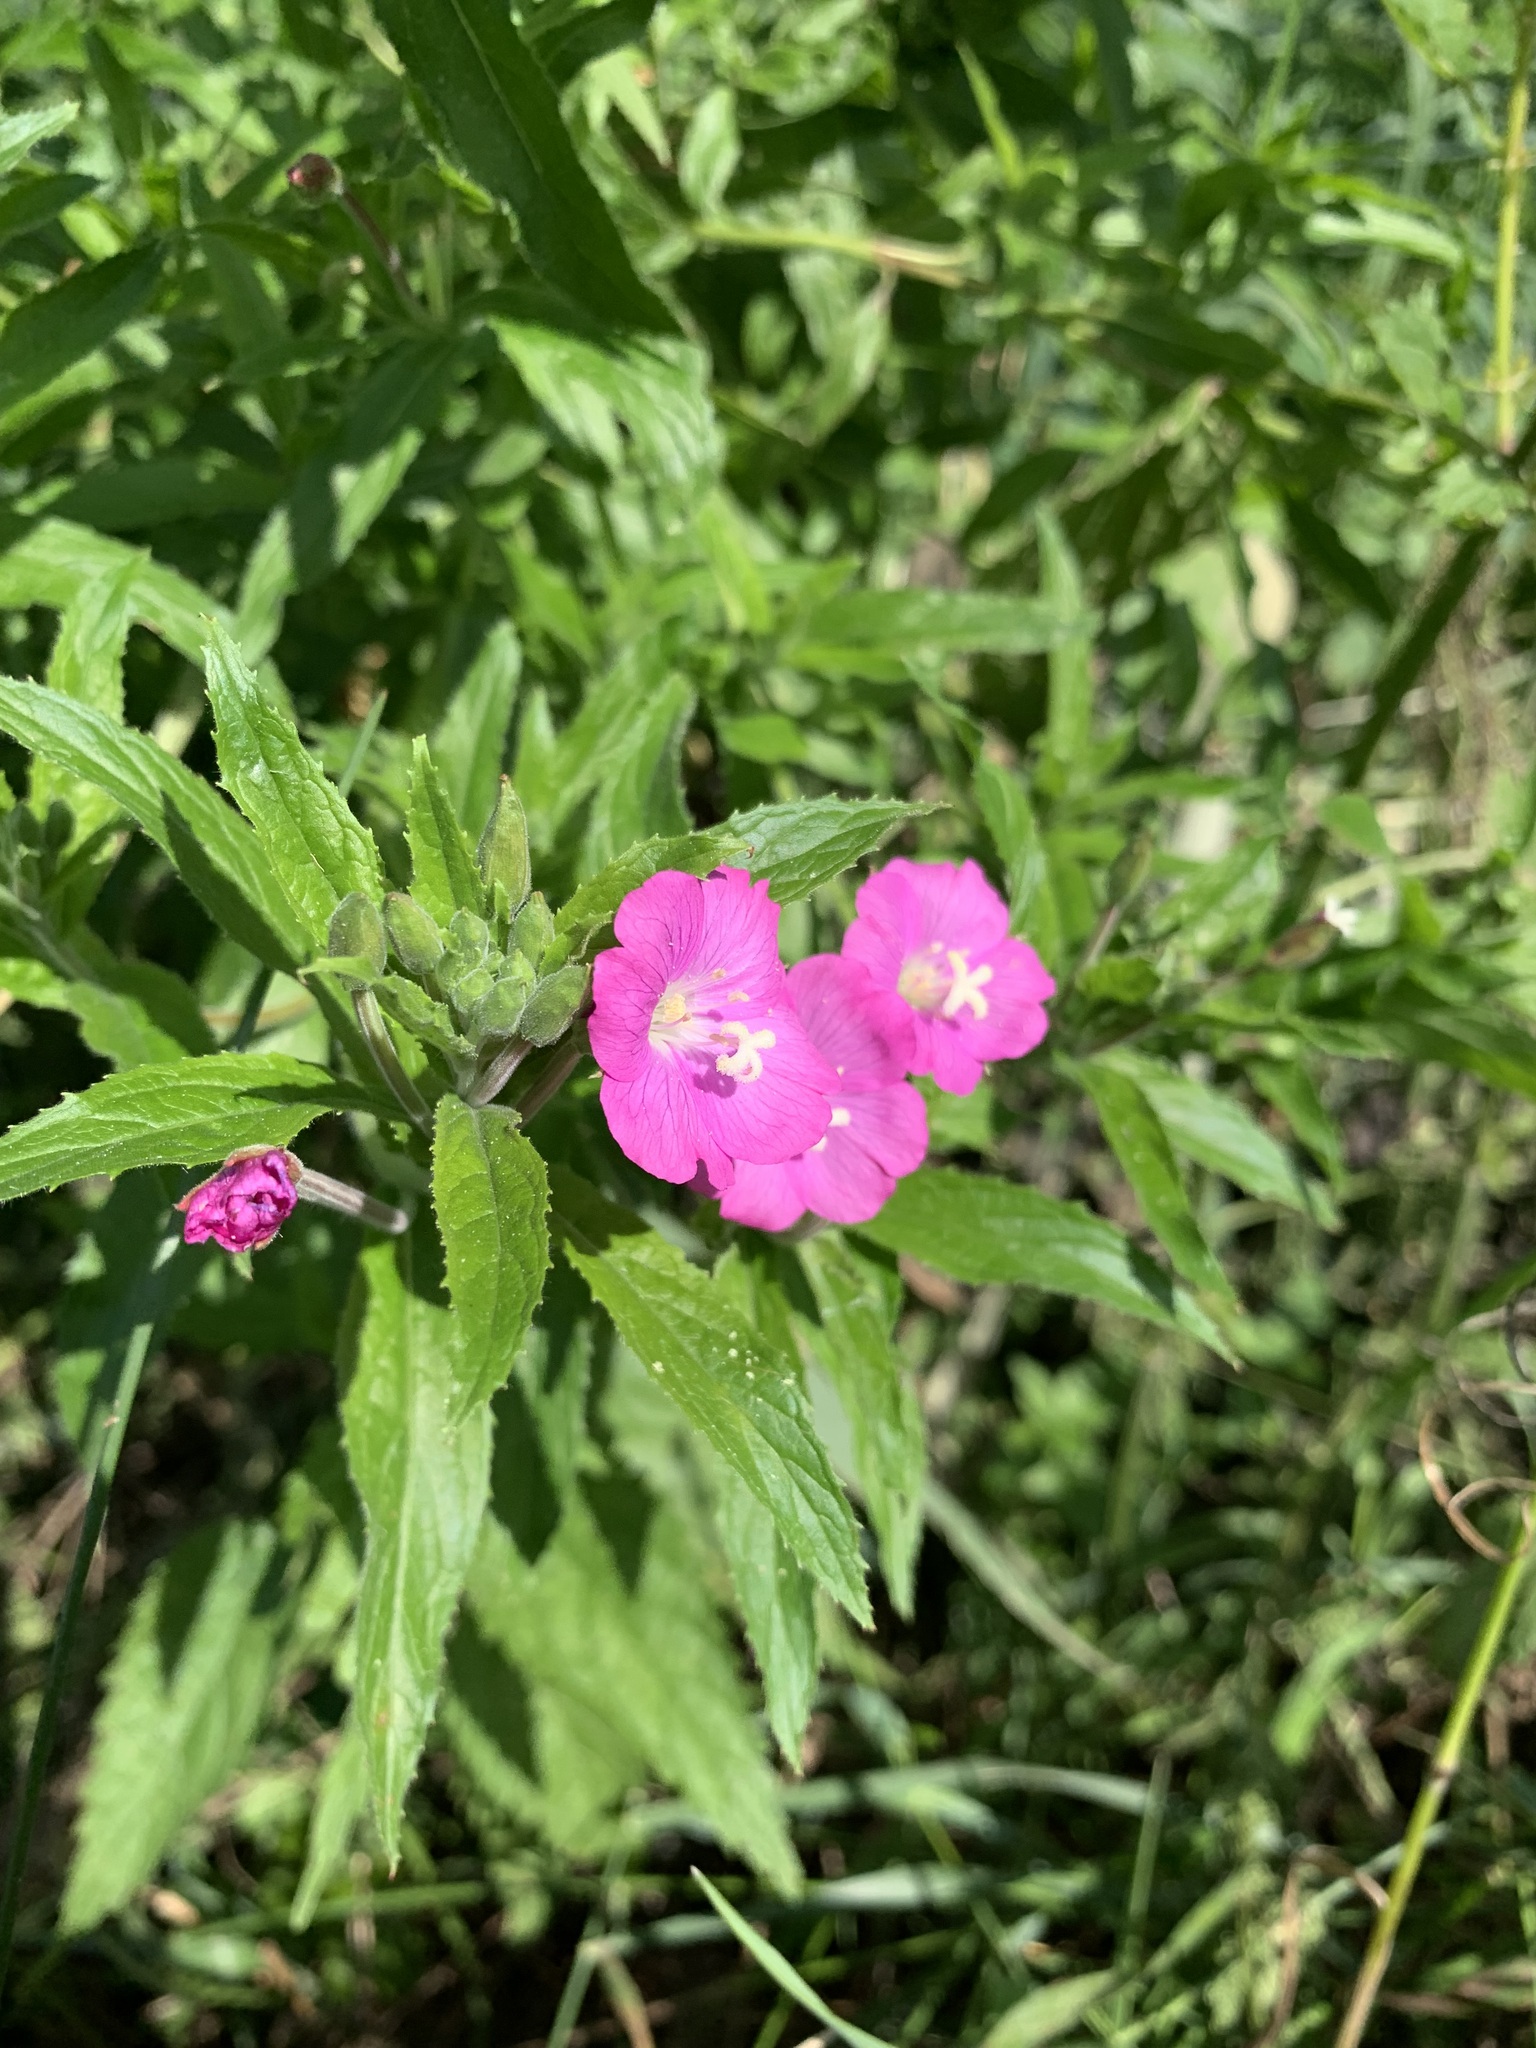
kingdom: Plantae
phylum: Tracheophyta
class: Magnoliopsida
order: Myrtales
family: Onagraceae
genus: Epilobium
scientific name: Epilobium hirsutum
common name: Great willowherb
